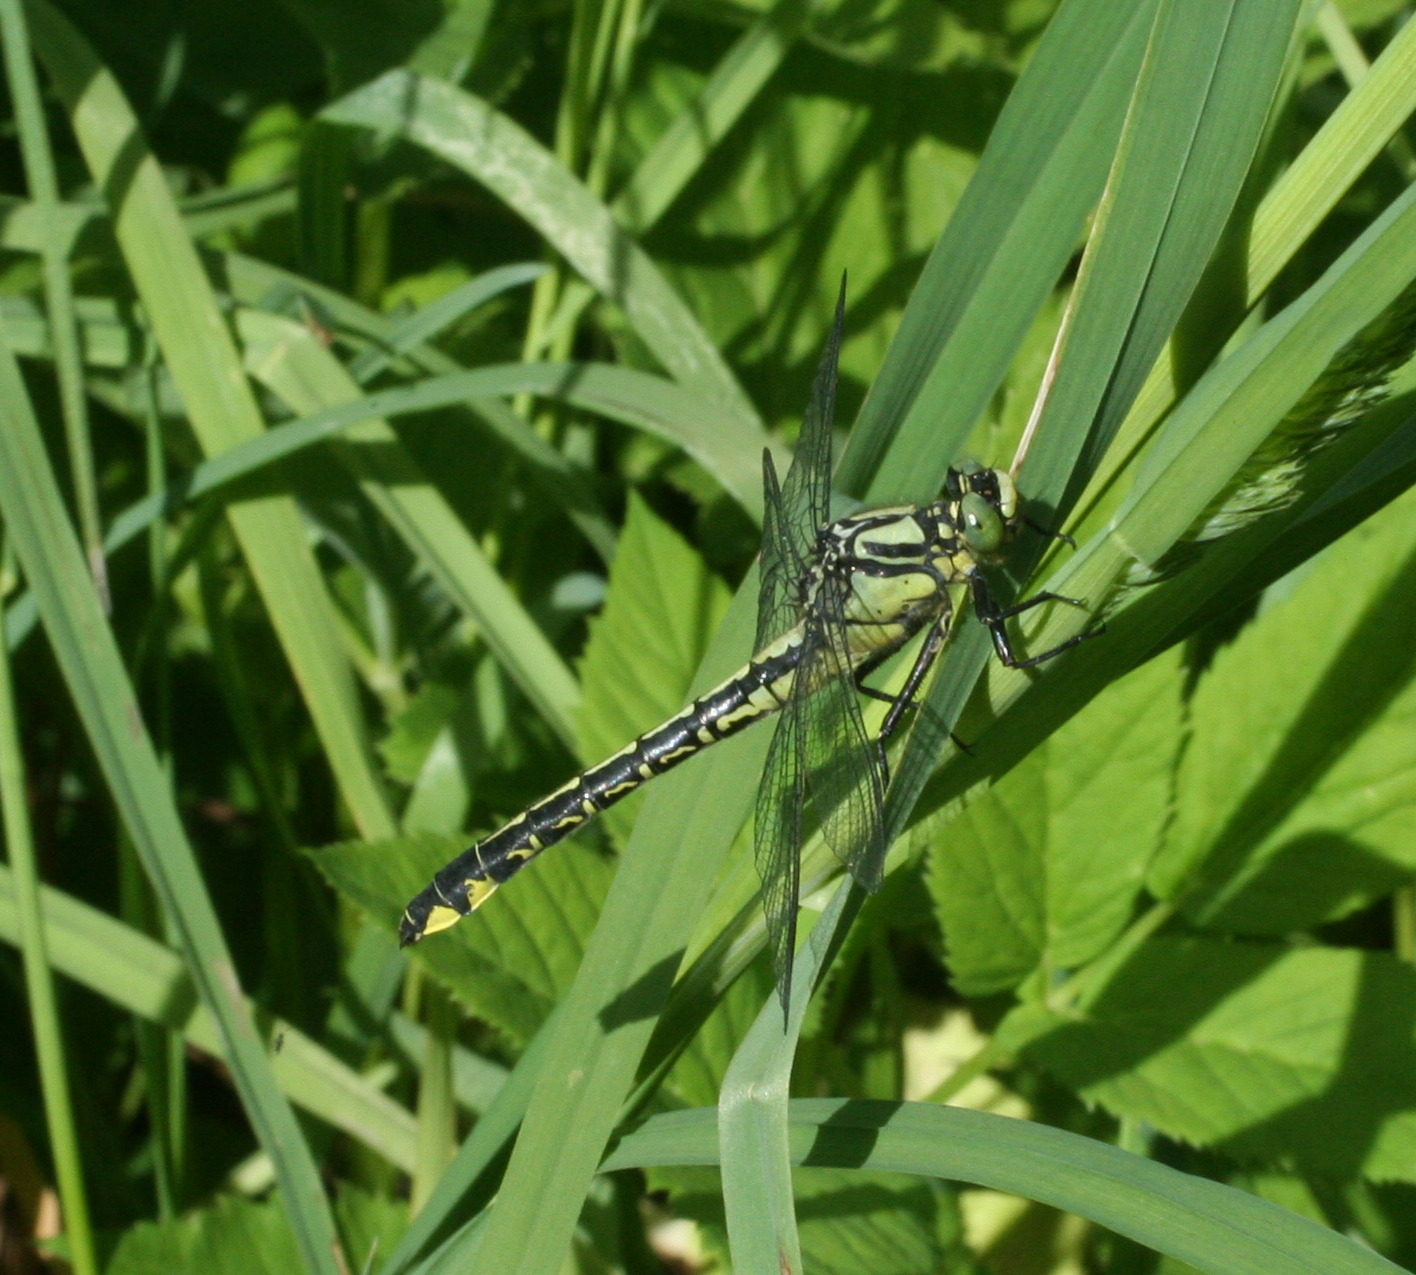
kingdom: Animalia
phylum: Arthropoda
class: Insecta
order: Odonata
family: Gomphidae
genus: Gomphus
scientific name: Gomphus vulgatissimus
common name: Club-tailed dragonfly
